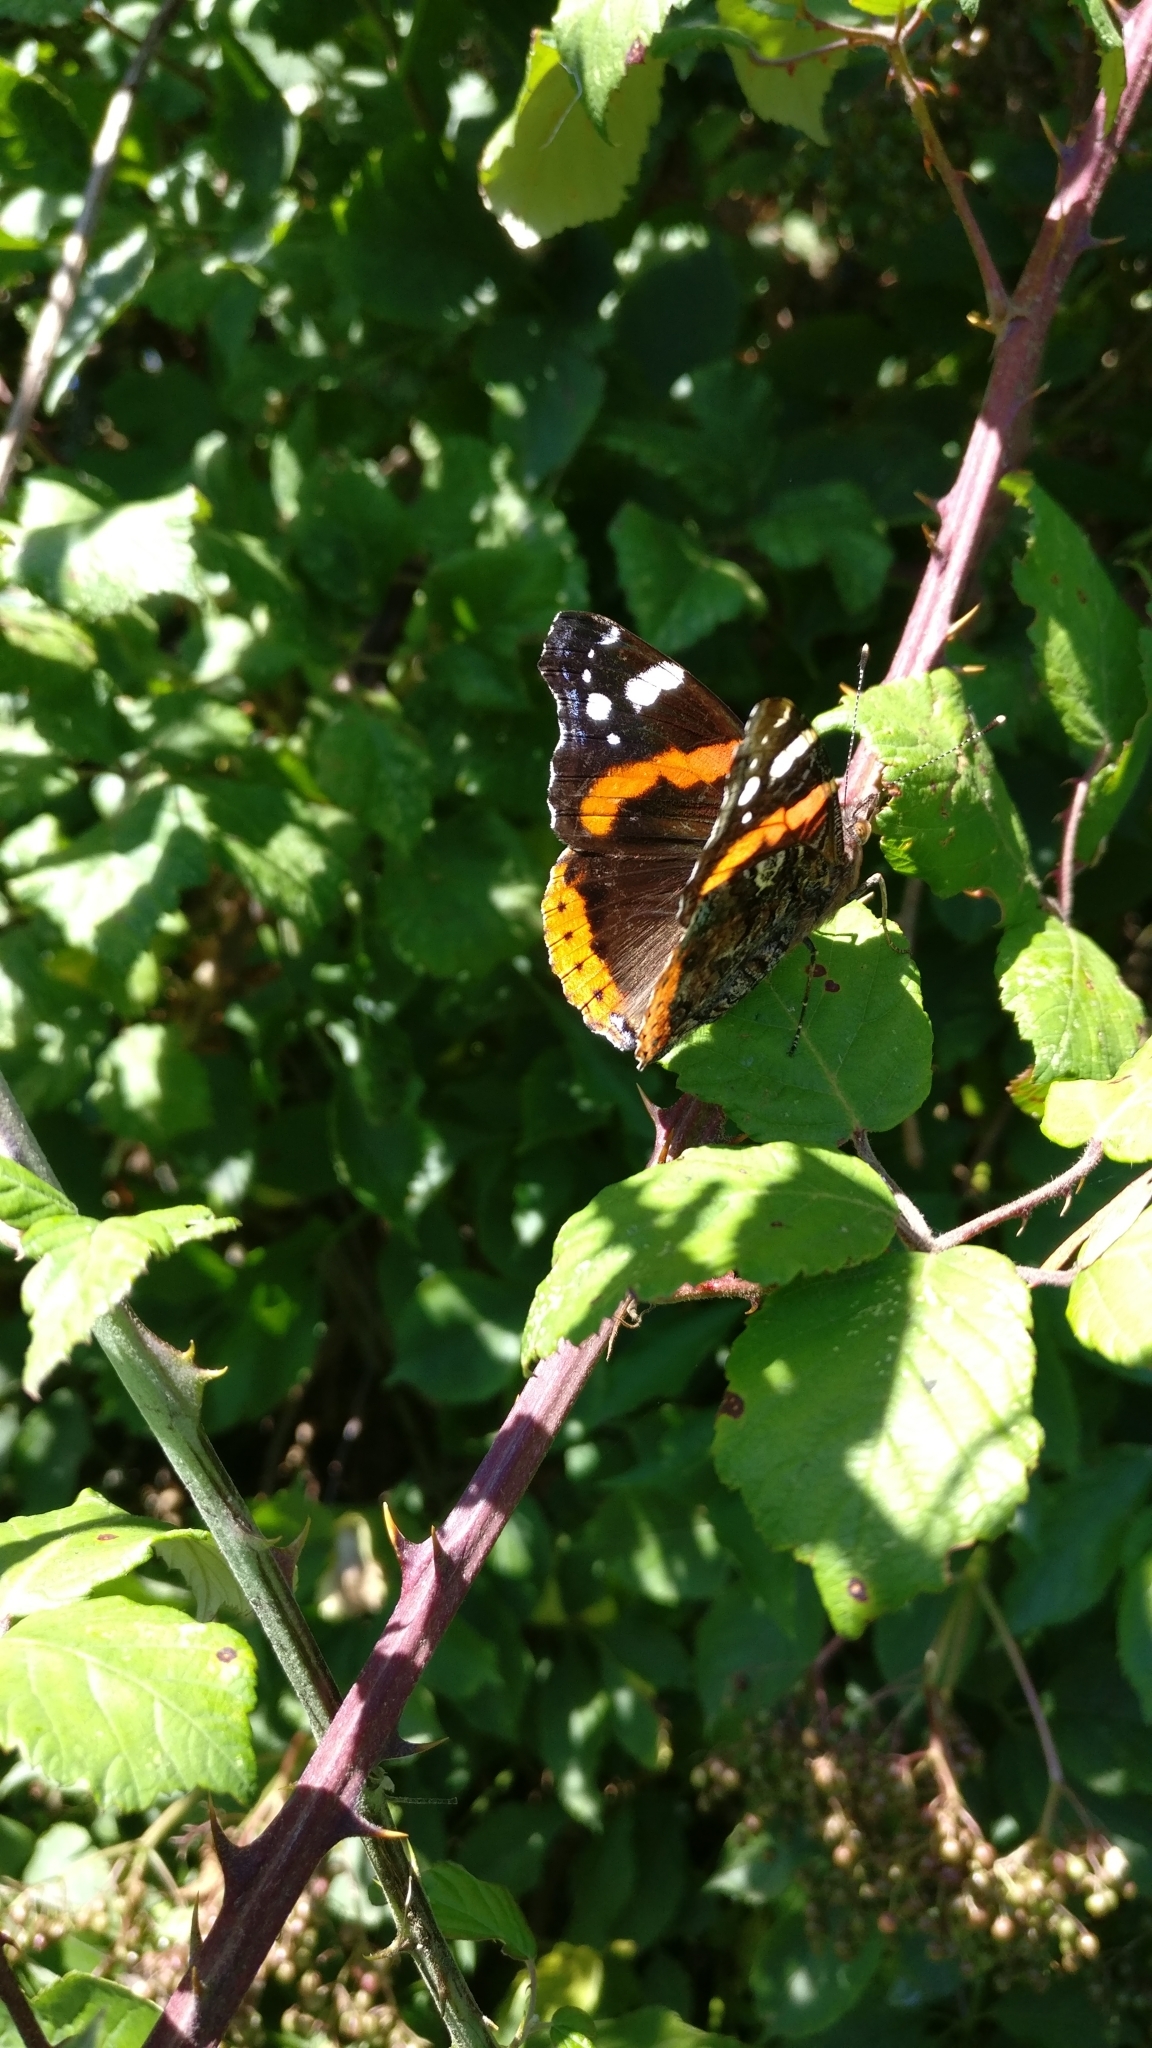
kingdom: Animalia
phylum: Arthropoda
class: Insecta
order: Lepidoptera
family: Nymphalidae
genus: Vanessa
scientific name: Vanessa atalanta
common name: Red admiral
